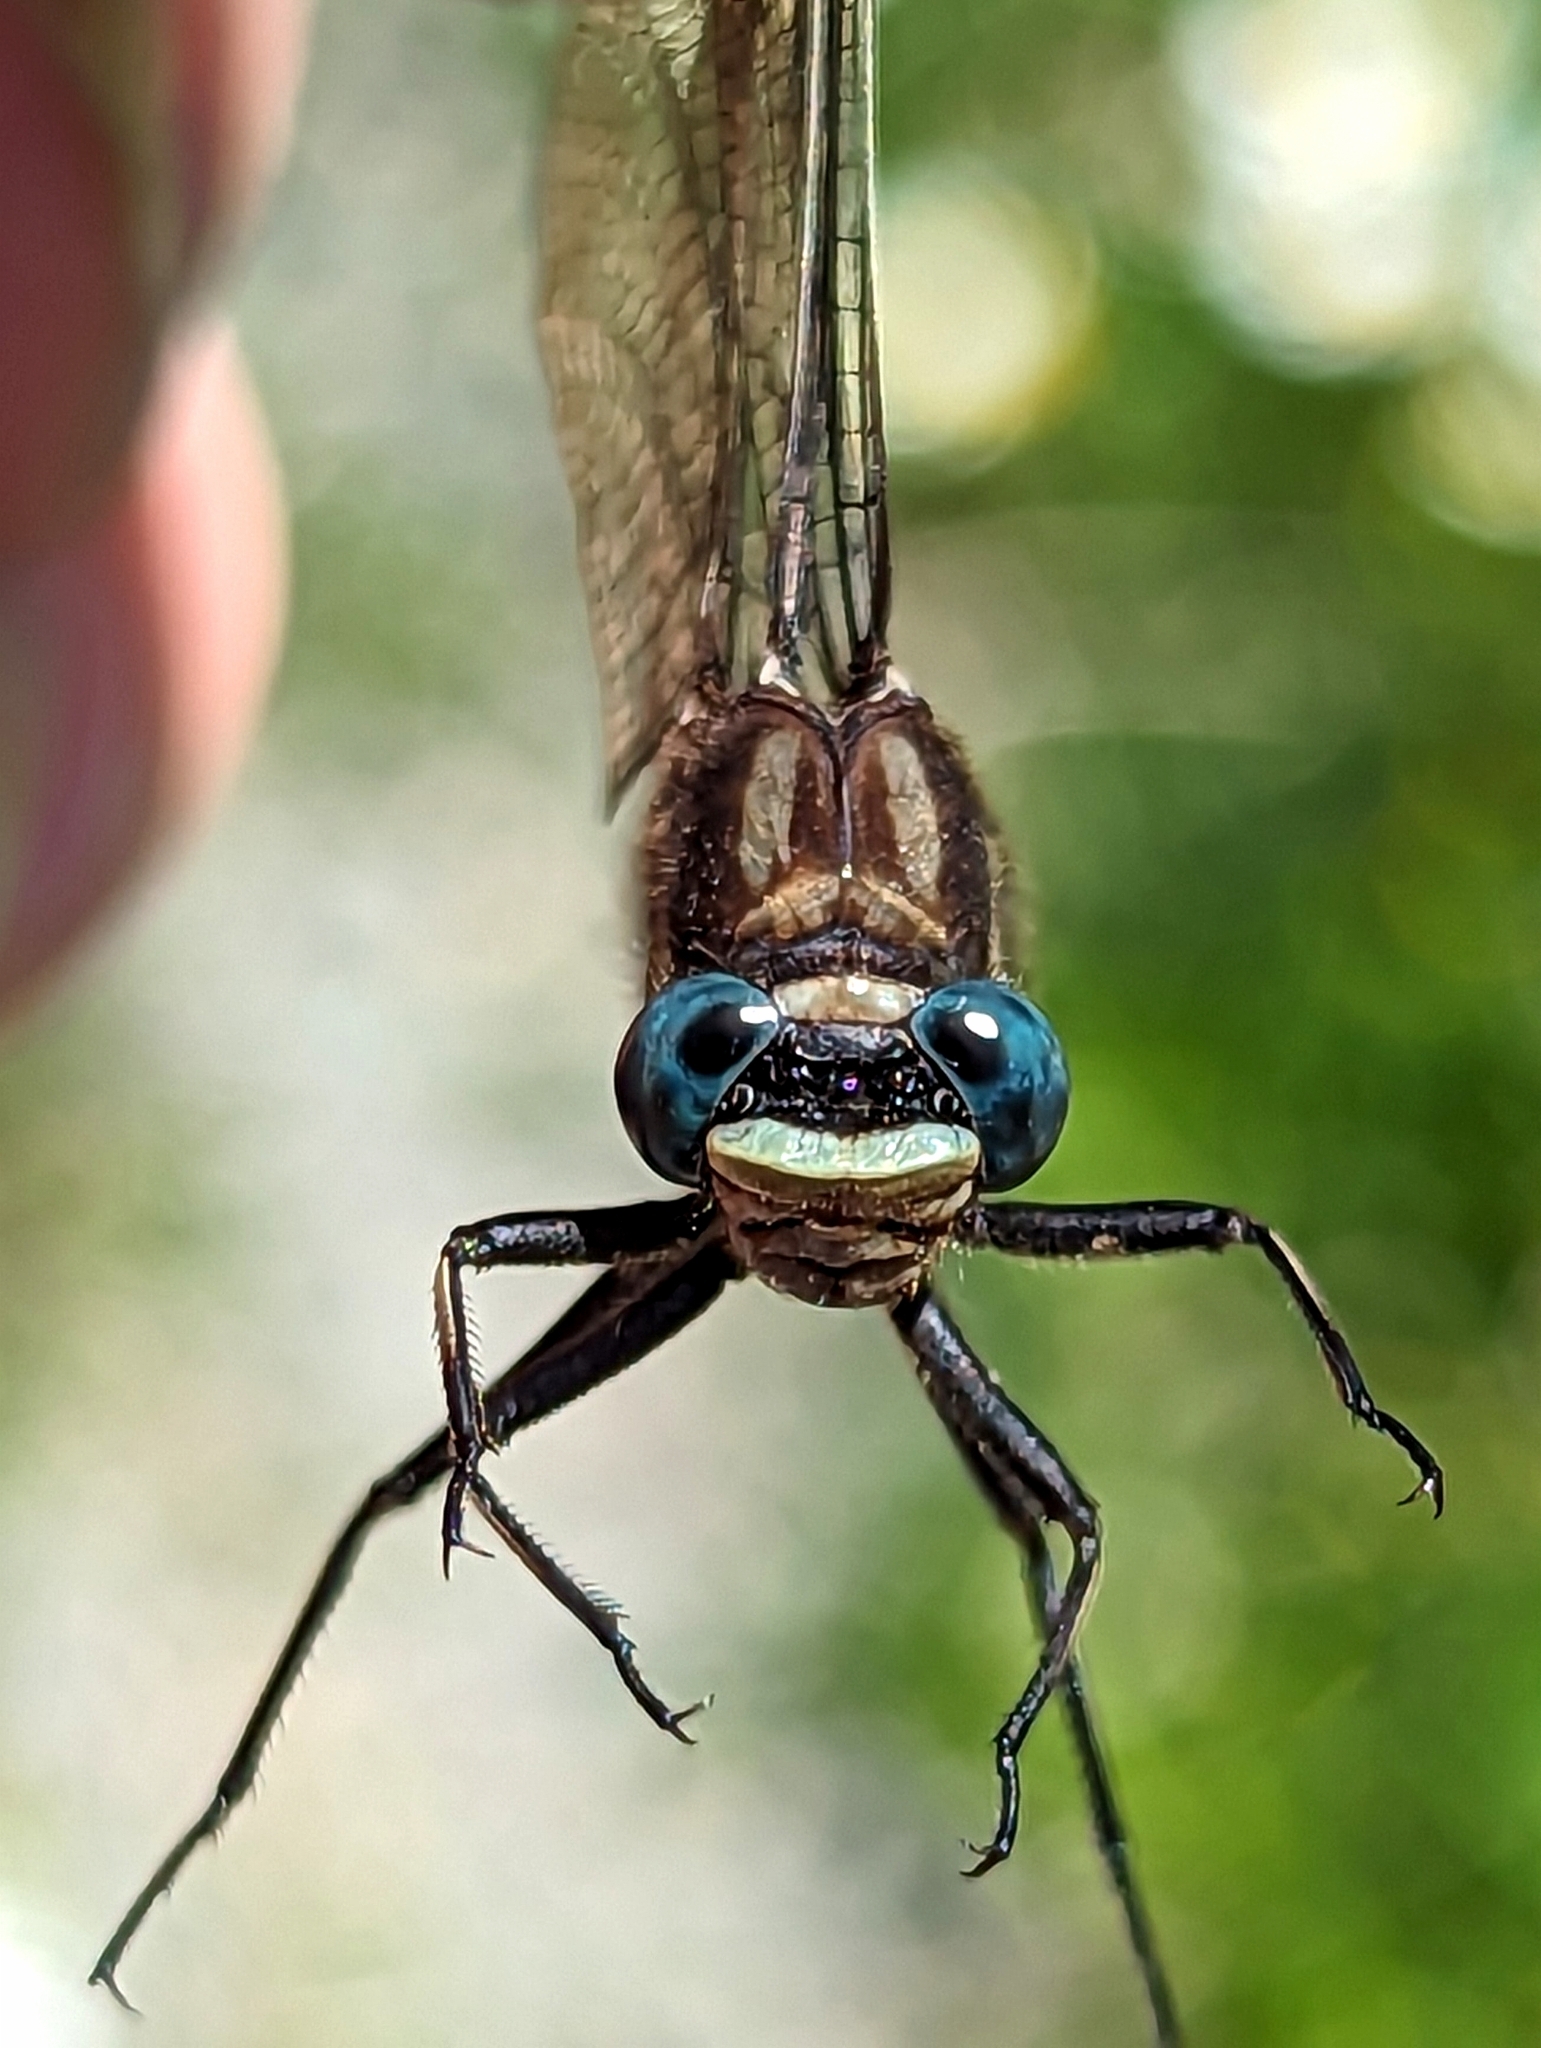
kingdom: Animalia
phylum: Arthropoda
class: Insecta
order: Odonata
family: Gomphidae
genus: Phanogomphus
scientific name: Phanogomphus spicatus
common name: Dusky clubtail
